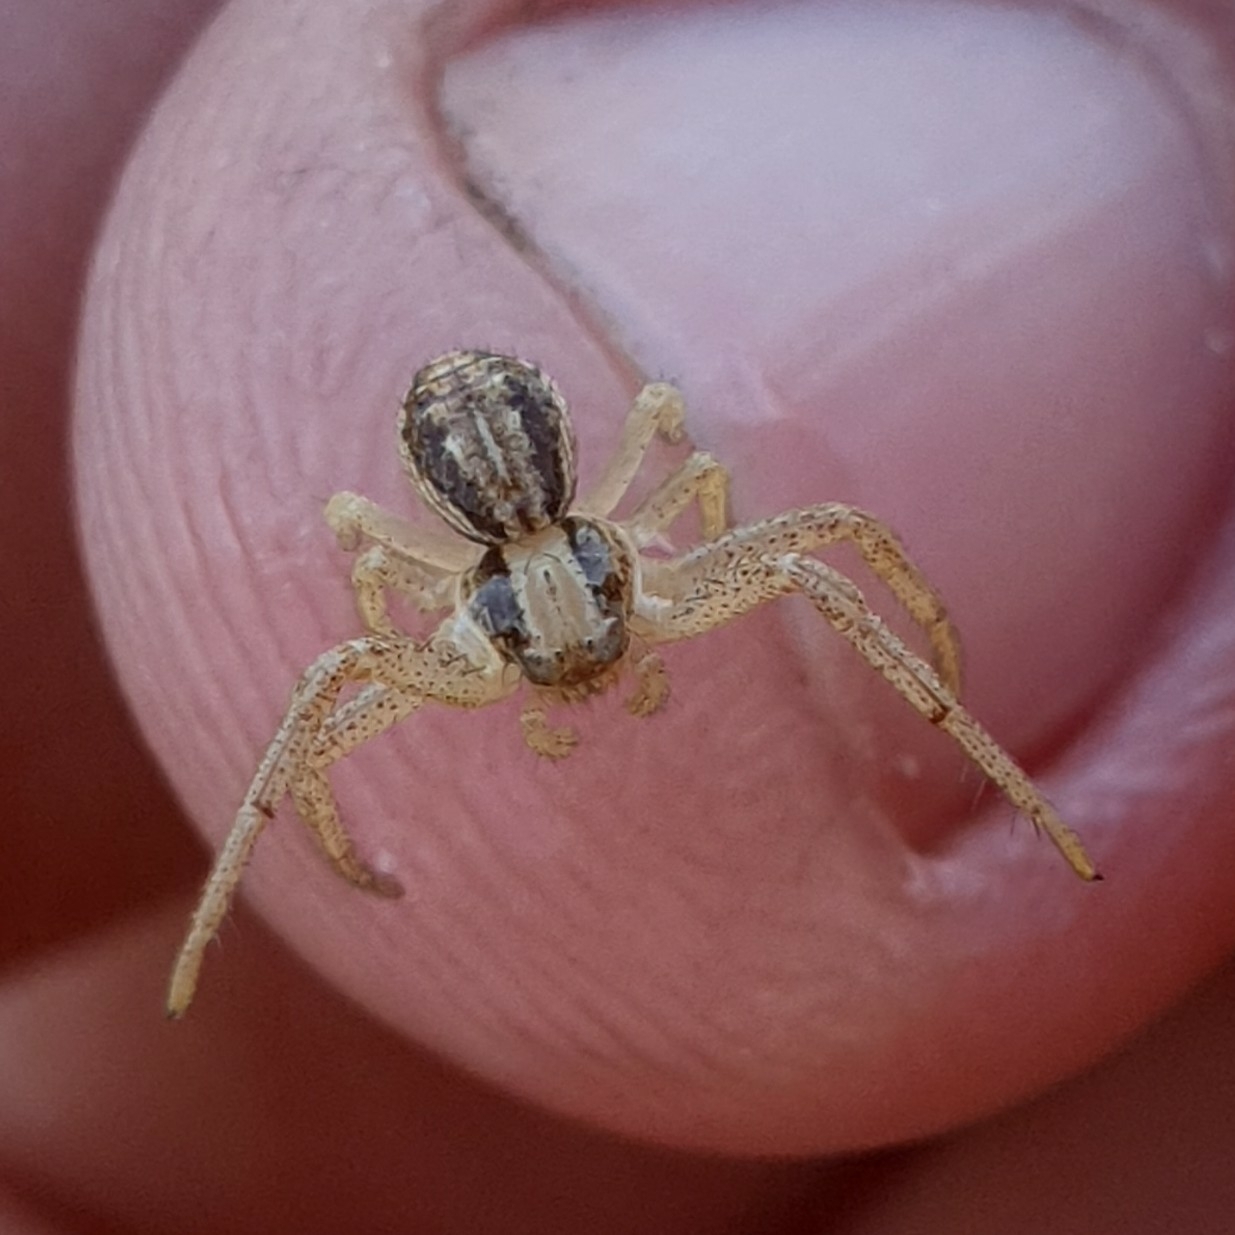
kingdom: Animalia
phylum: Arthropoda
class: Arachnida
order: Araneae
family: Thomisidae
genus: Spiracme
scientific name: Spiracme striatipes
